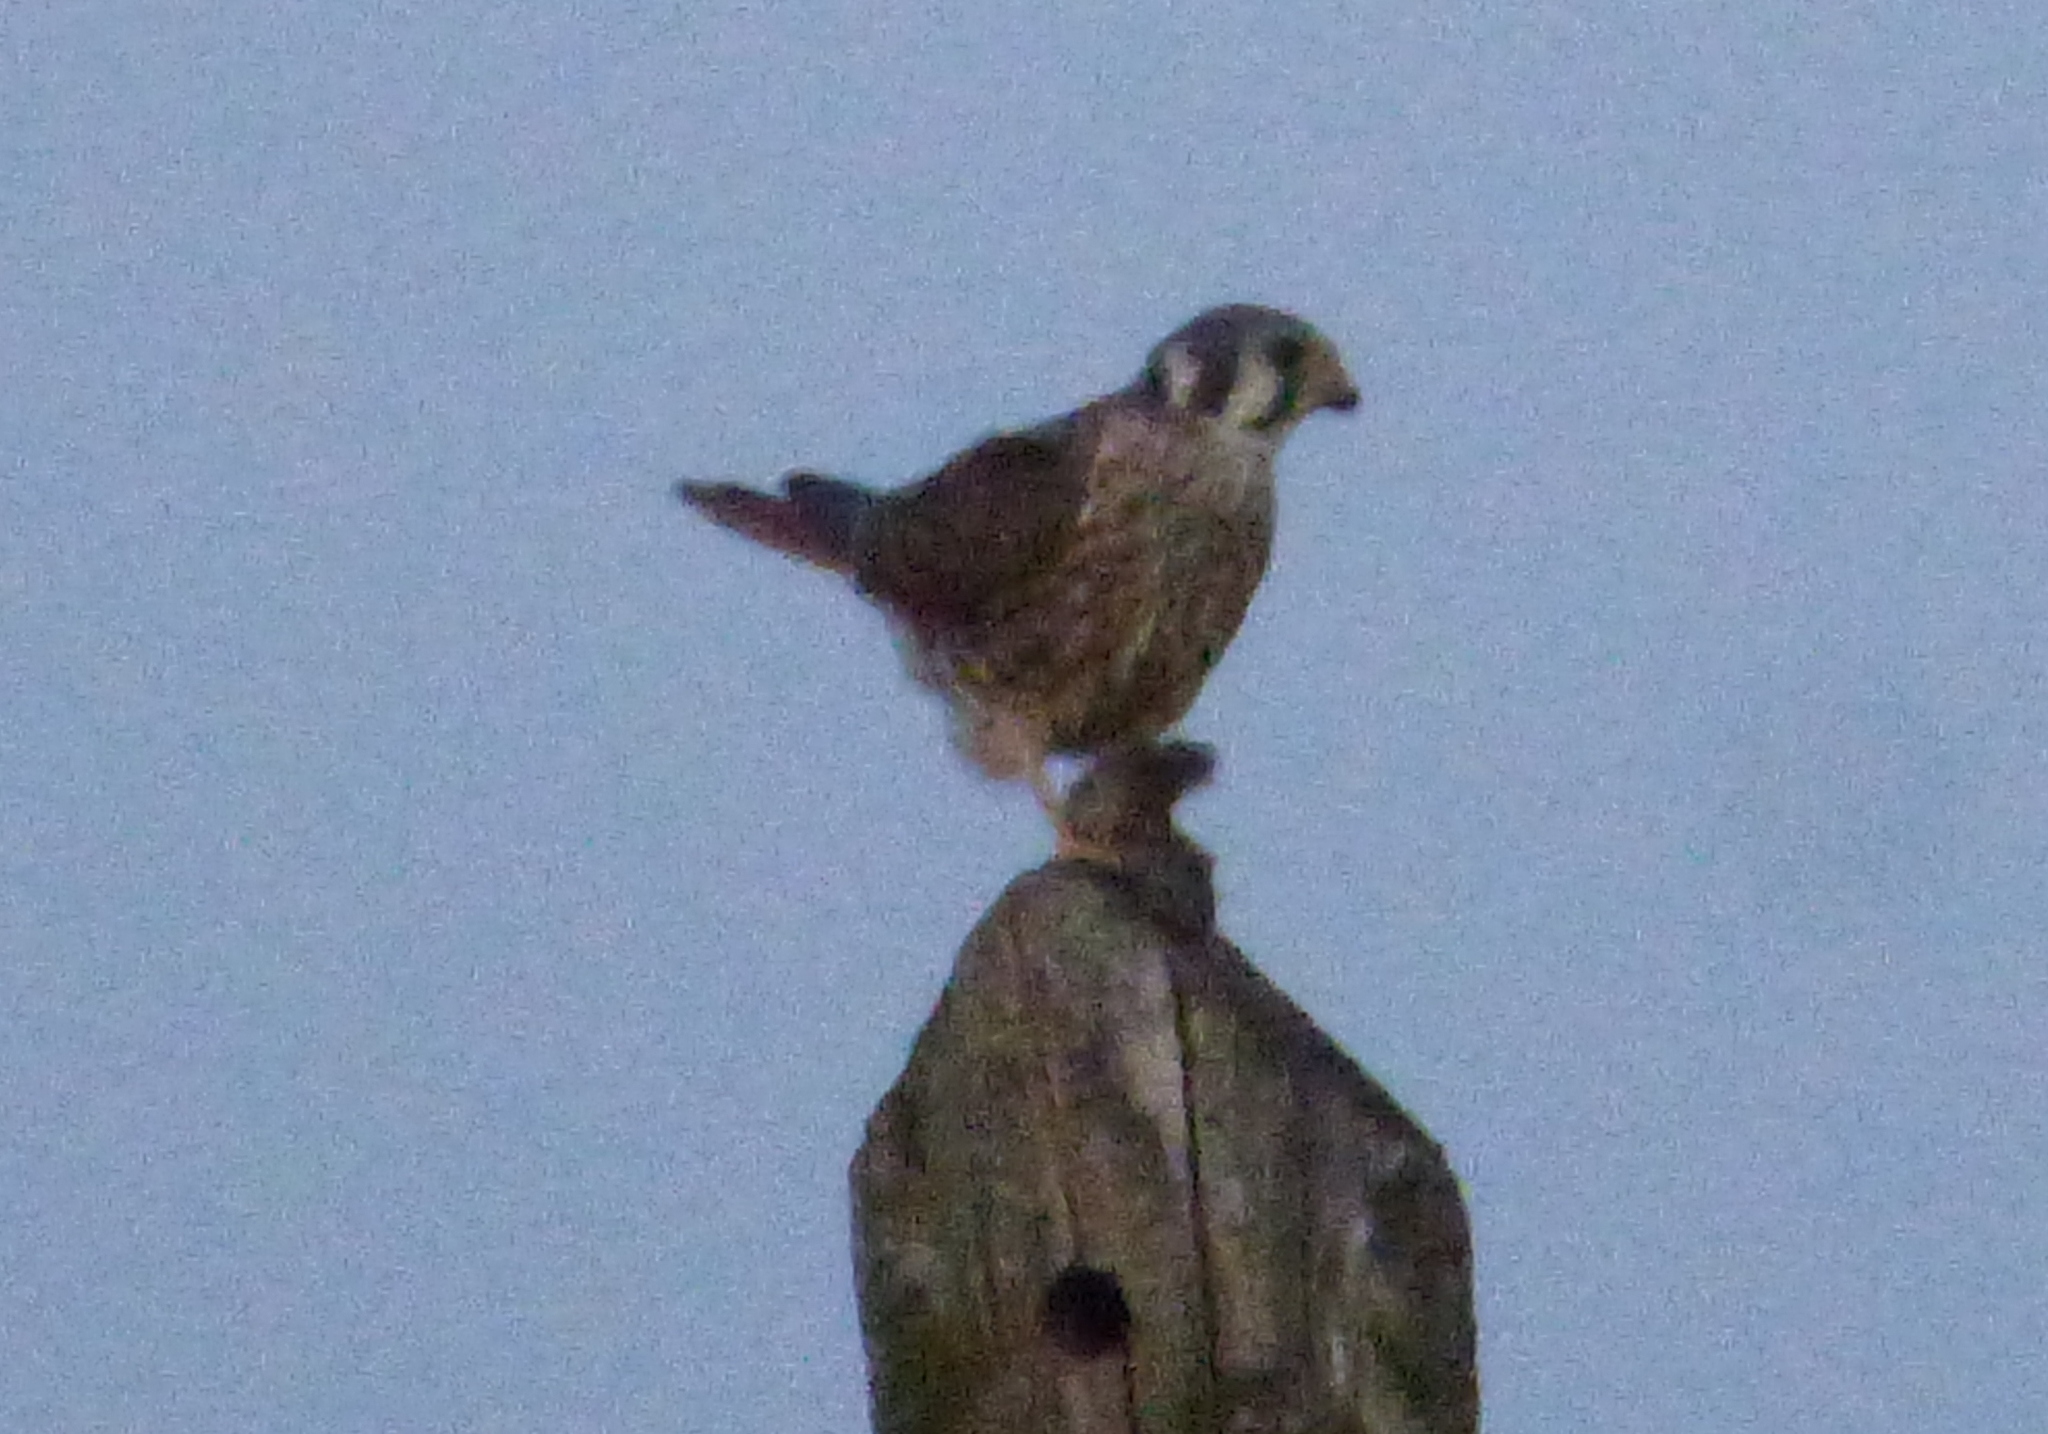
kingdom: Animalia
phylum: Chordata
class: Aves
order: Falconiformes
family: Falconidae
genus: Falco
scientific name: Falco sparverius
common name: American kestrel
